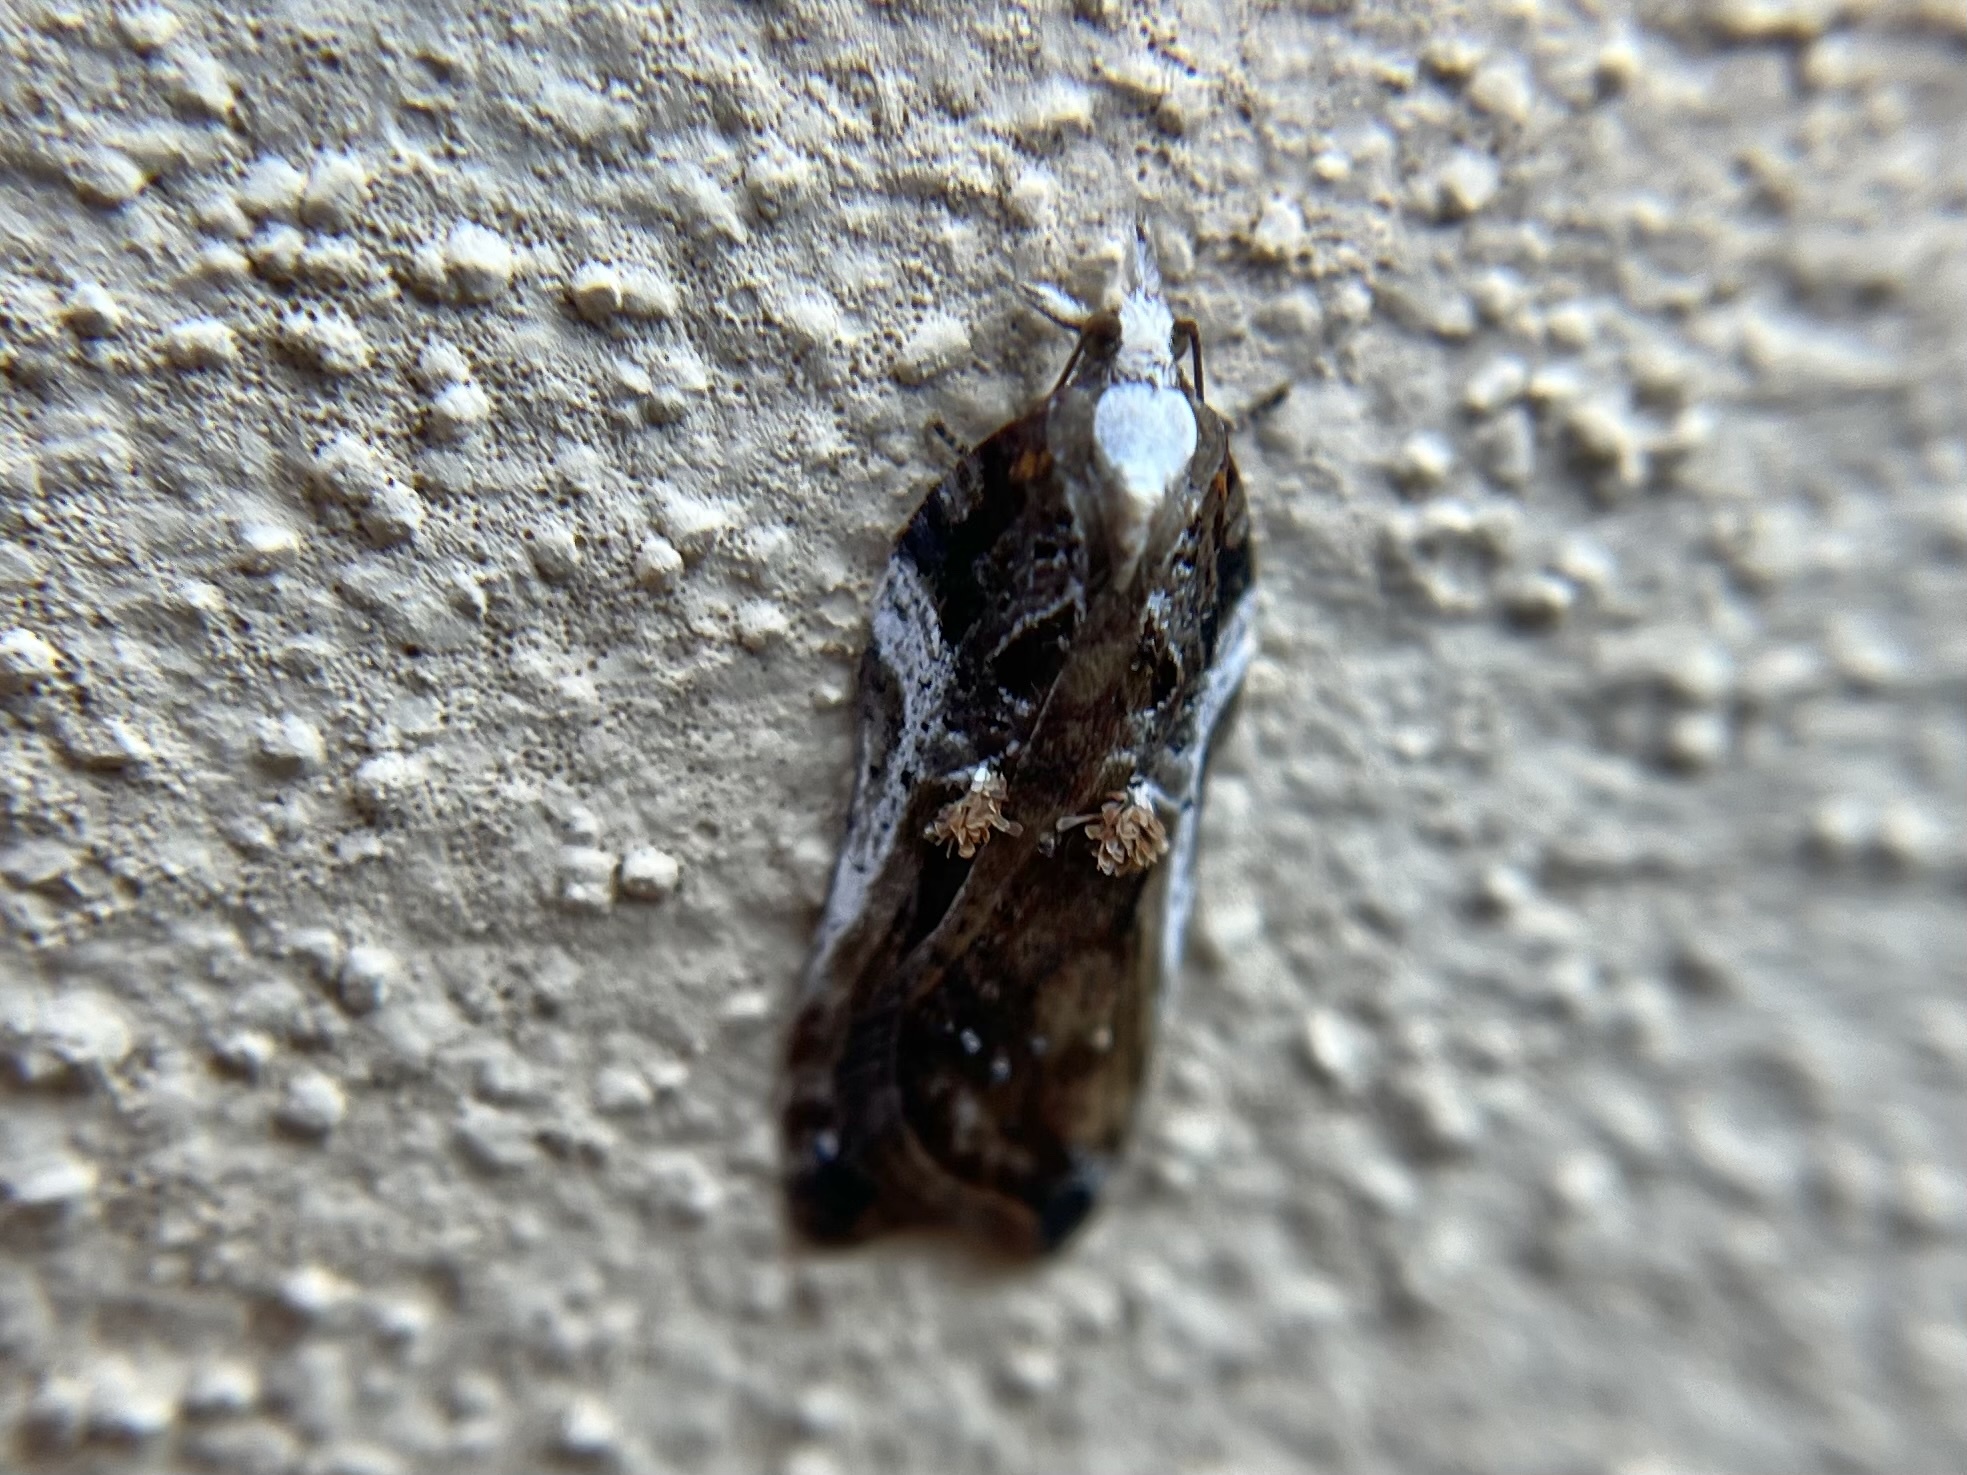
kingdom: Animalia
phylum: Arthropoda
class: Insecta
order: Lepidoptera
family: Tortricidae
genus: Acleris
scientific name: Acleris cristana
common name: Tufted button
